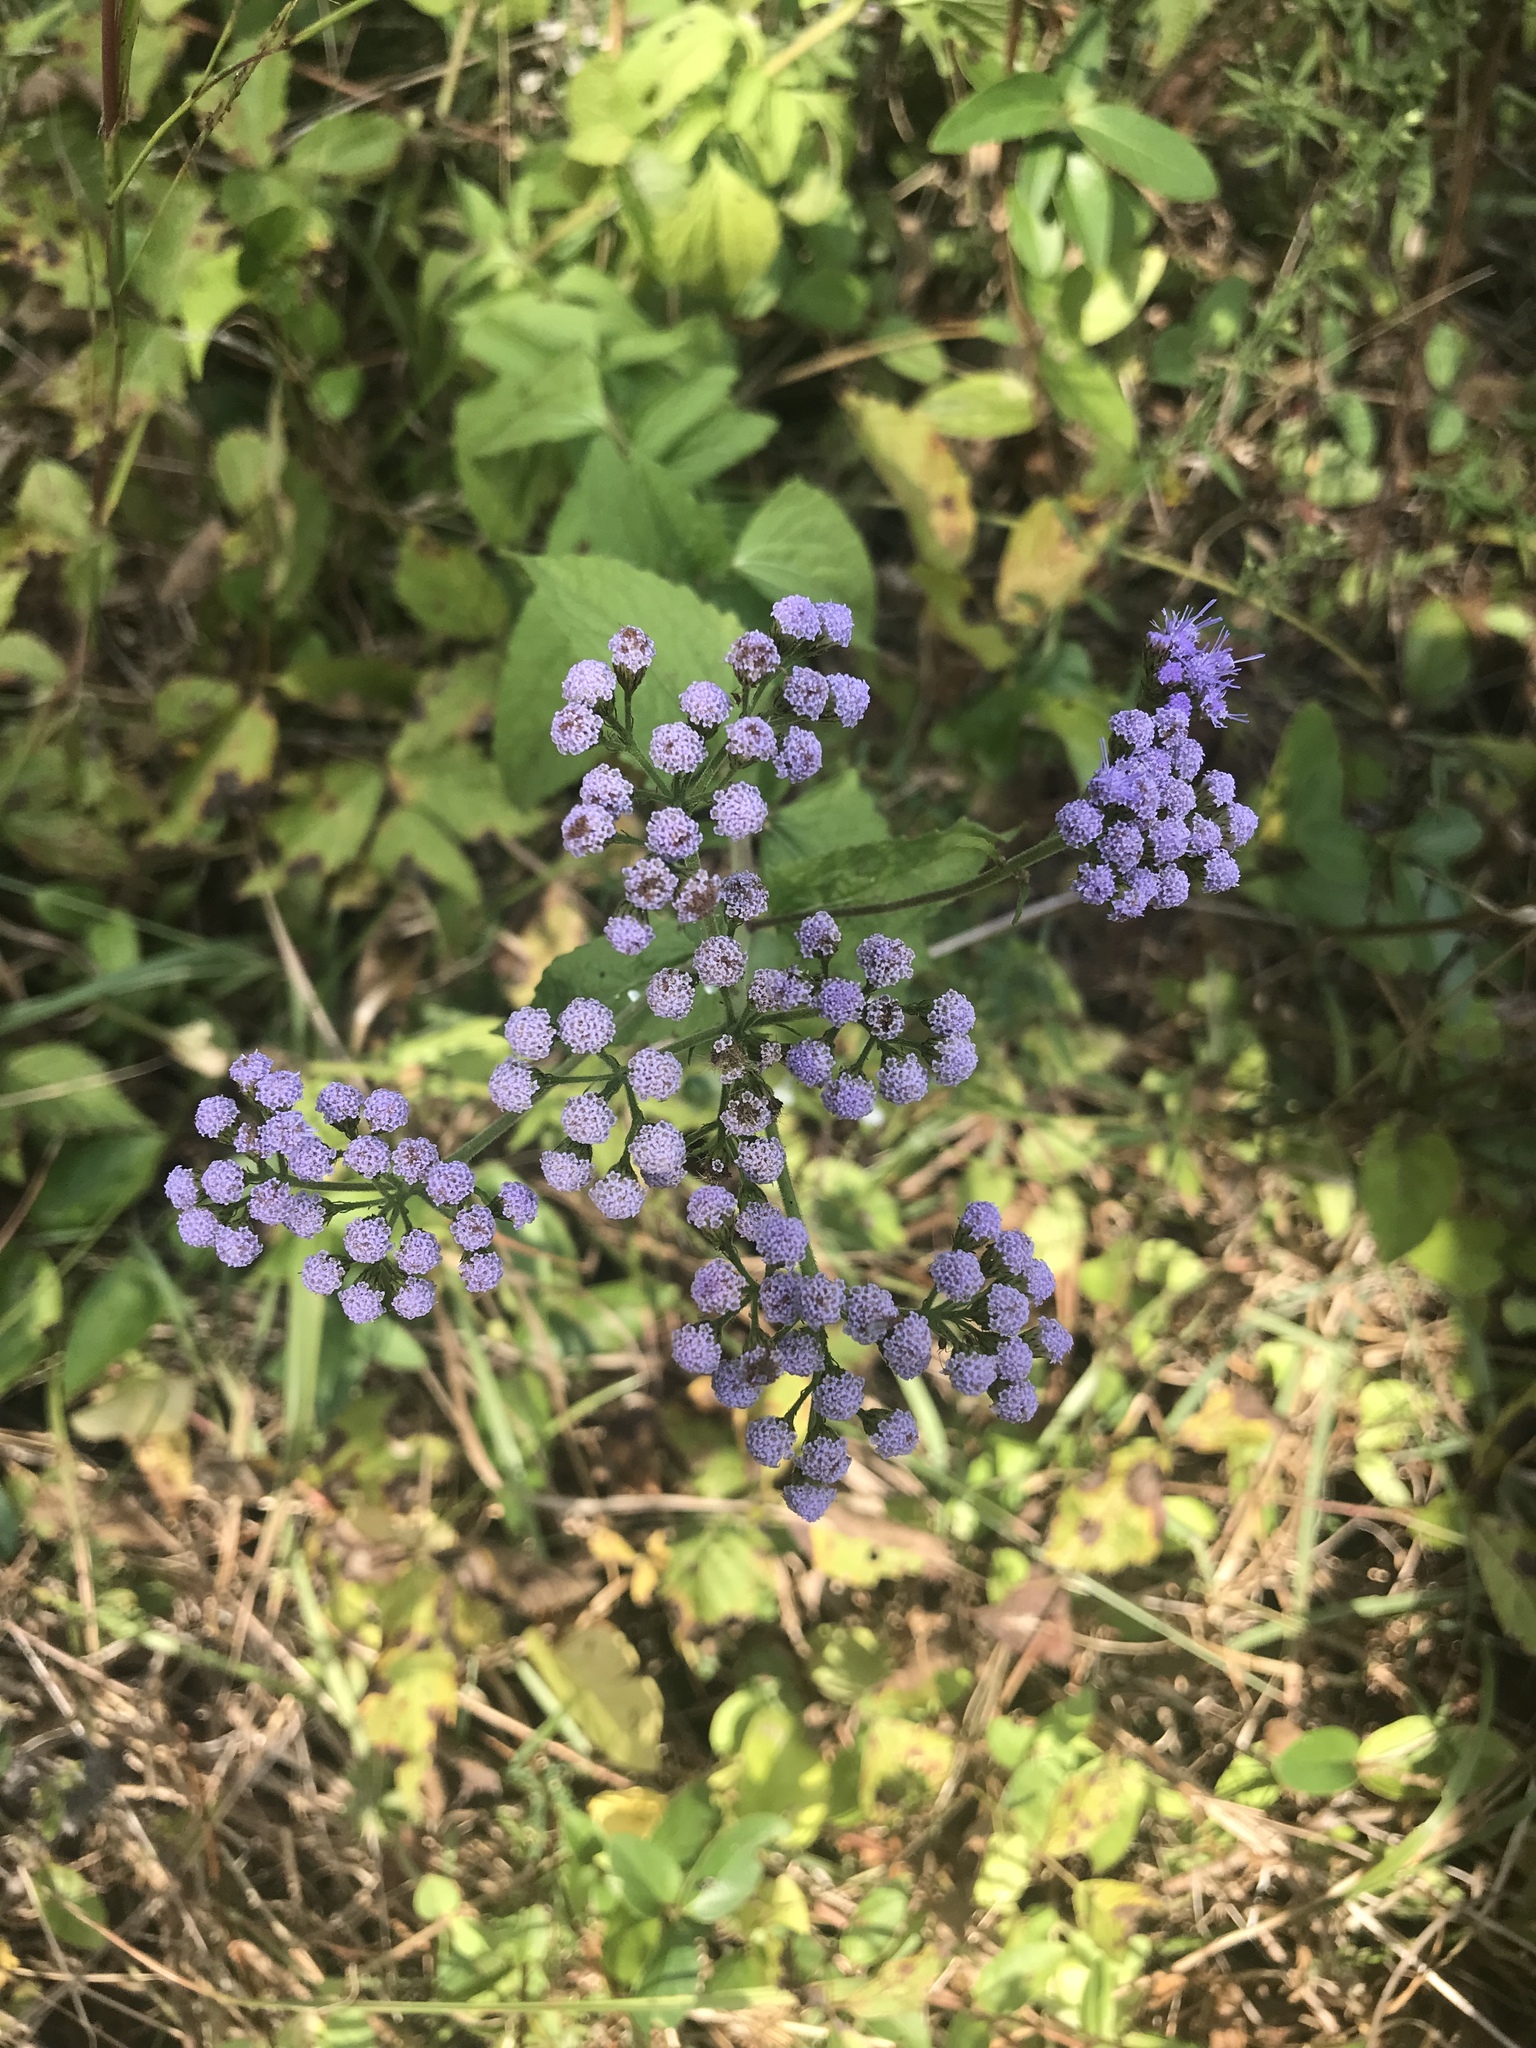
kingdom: Plantae
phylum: Tracheophyta
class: Magnoliopsida
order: Asterales
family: Asteraceae
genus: Conoclinium
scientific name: Conoclinium coelestinum
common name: Blue mistflower
